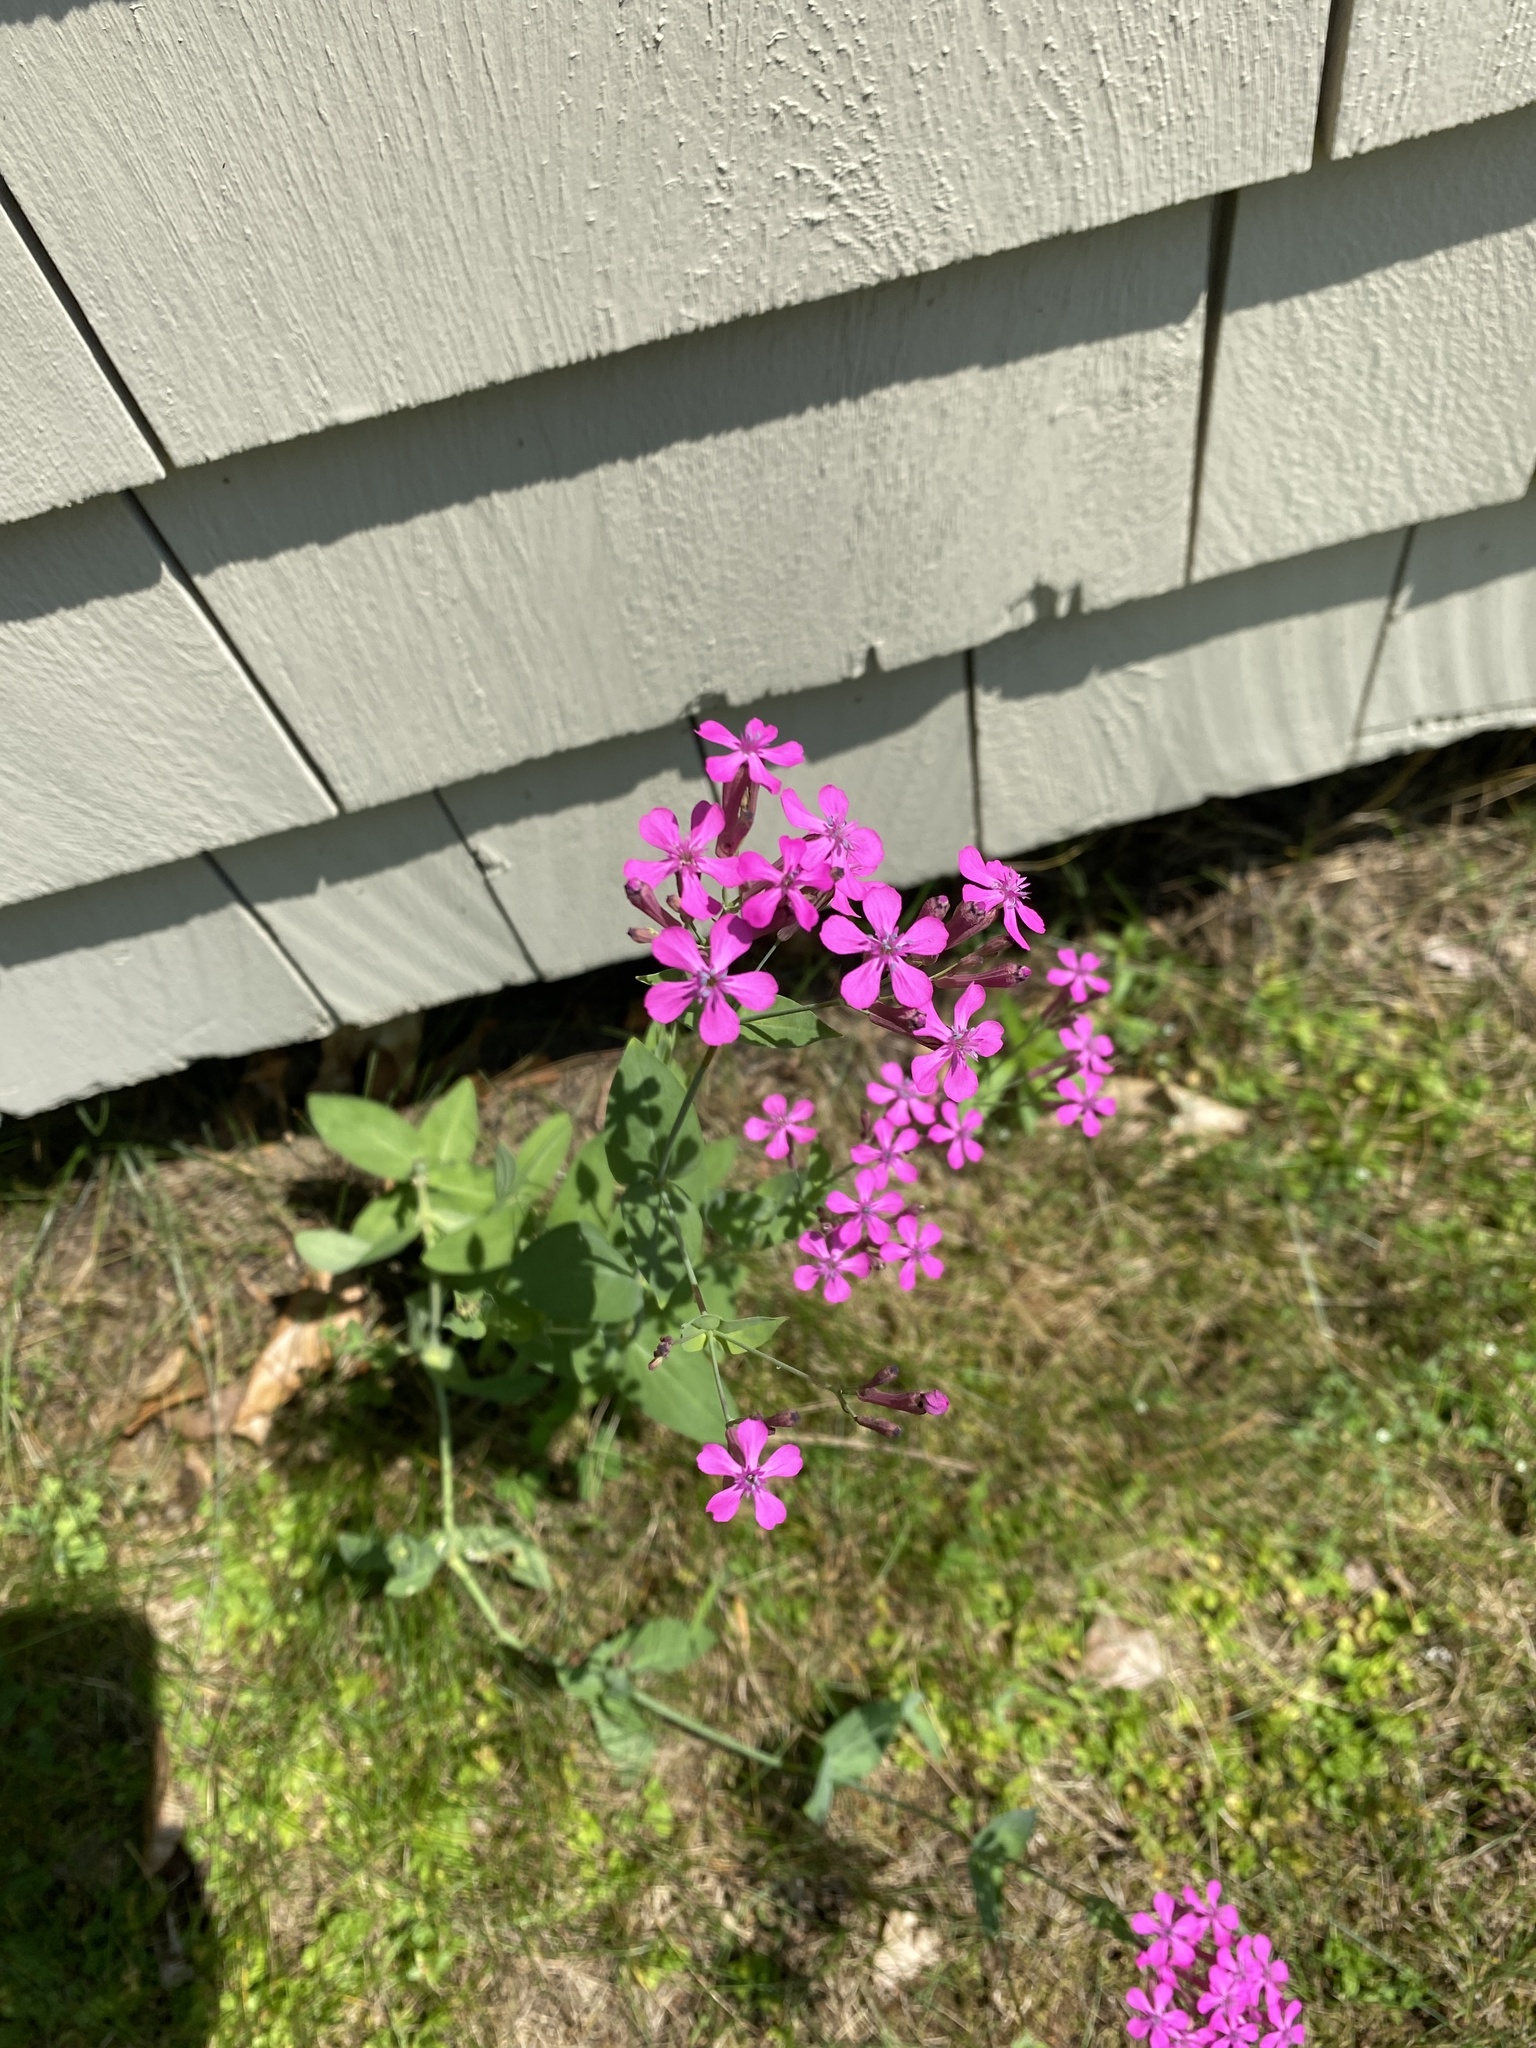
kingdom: Plantae
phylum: Tracheophyta
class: Magnoliopsida
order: Caryophyllales
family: Caryophyllaceae
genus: Atocion
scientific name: Atocion armeria
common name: Sweet william catchfly
